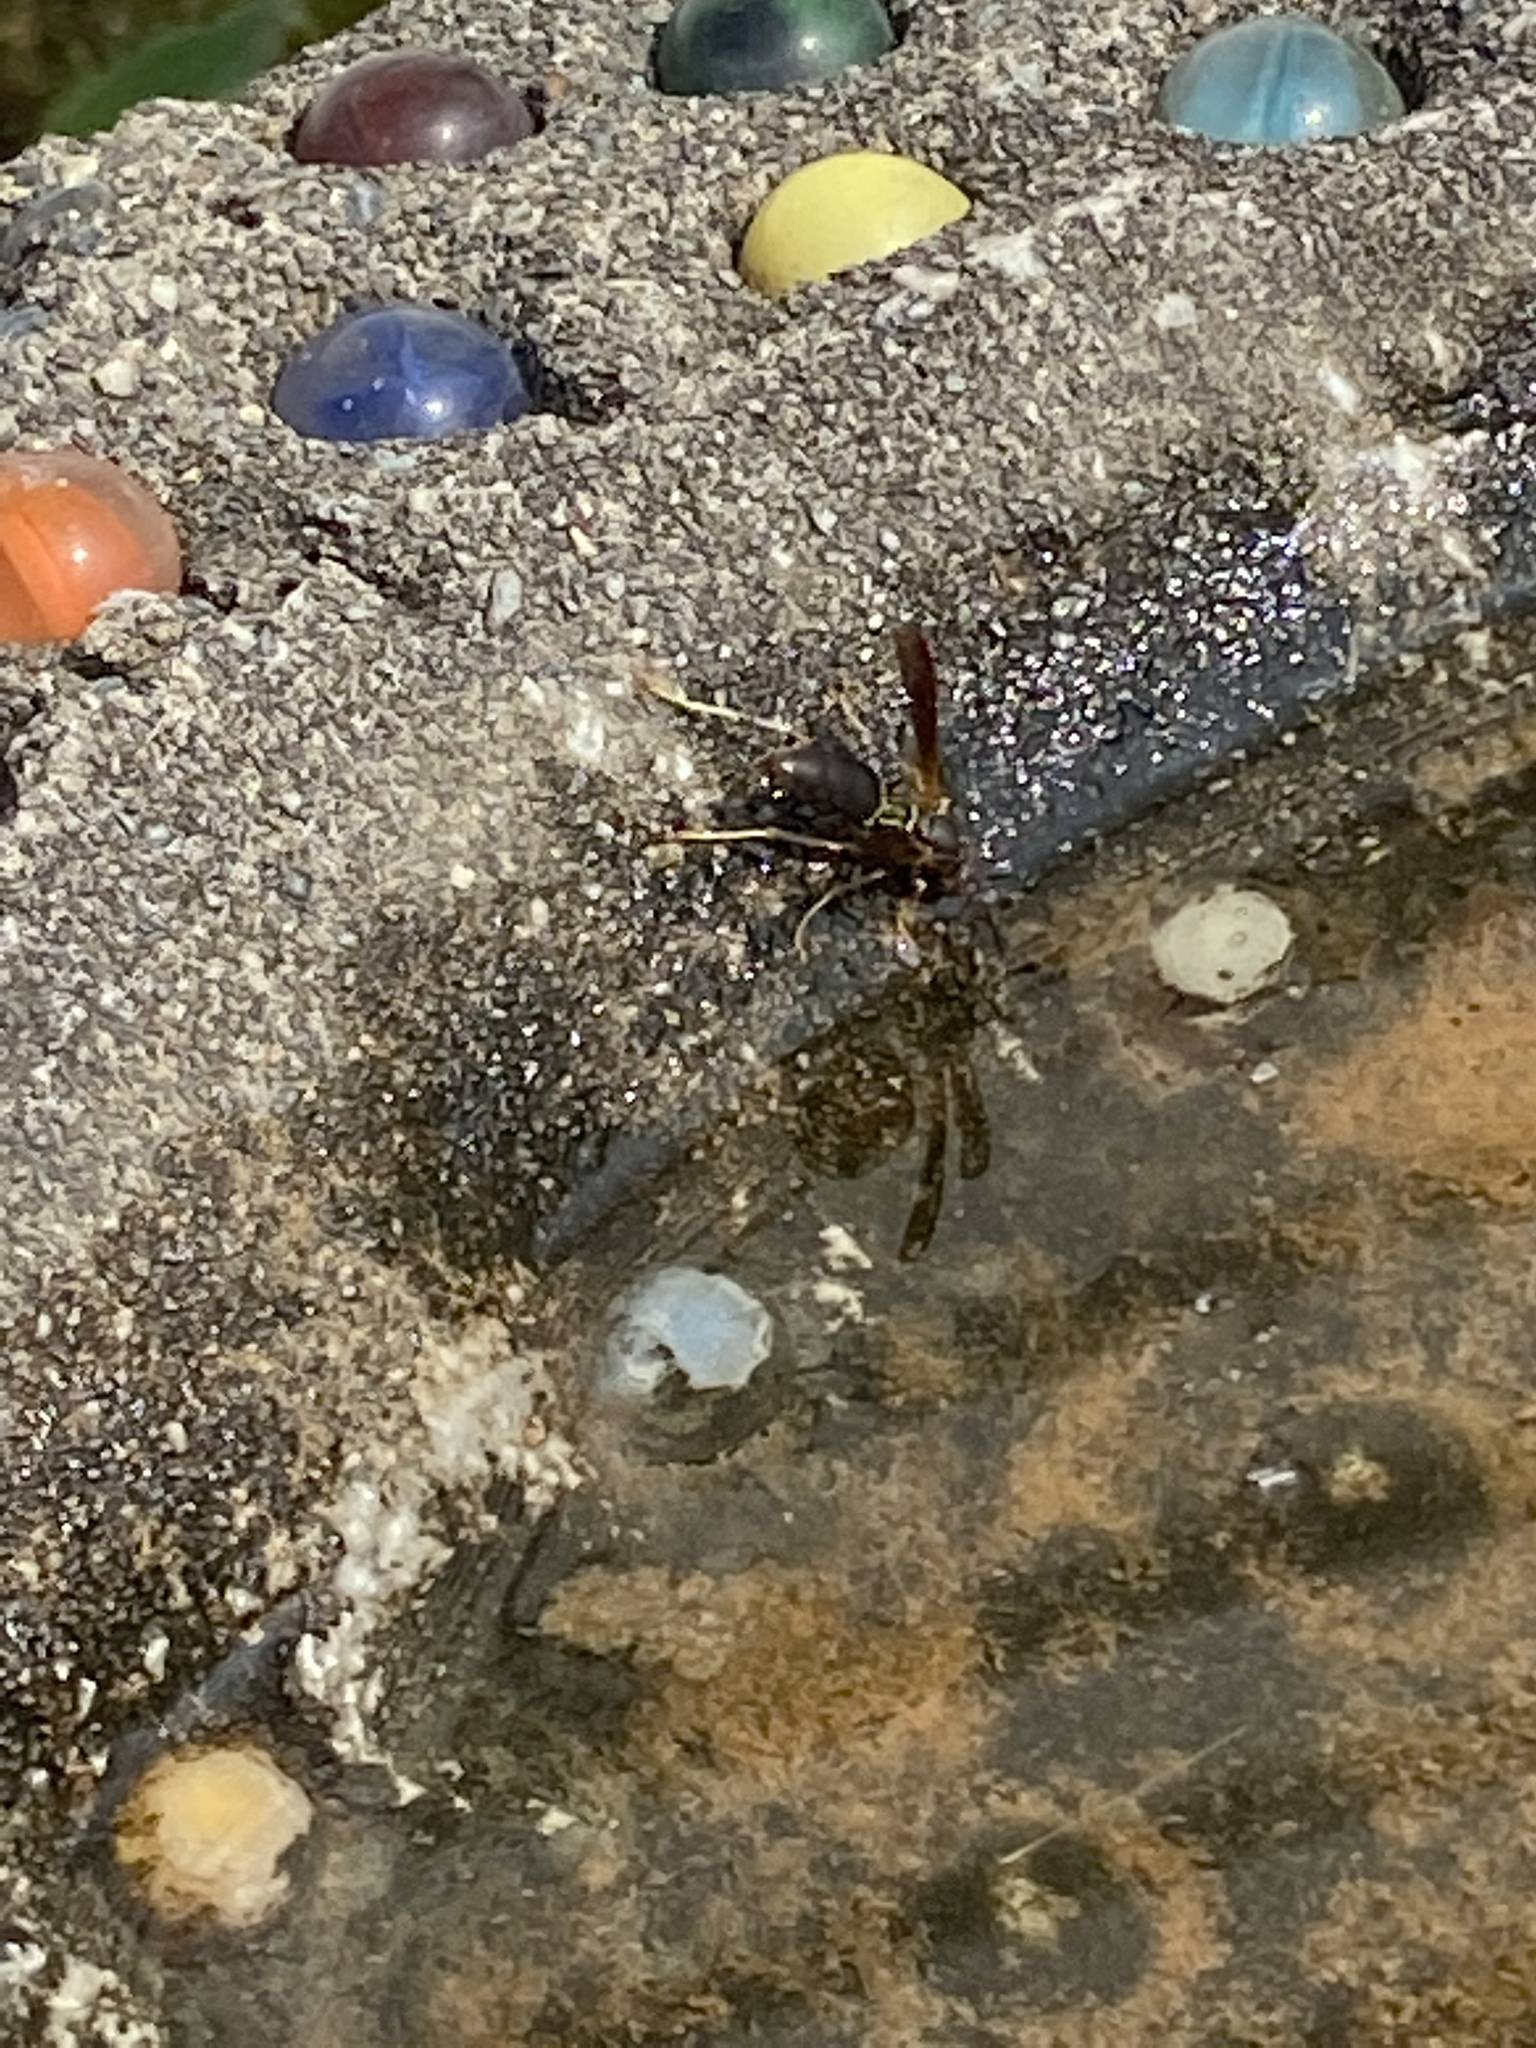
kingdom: Animalia
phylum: Arthropoda
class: Insecta
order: Hymenoptera
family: Eumenidae
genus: Polistes
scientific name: Polistes fuscatus
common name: Dark paper wasp
